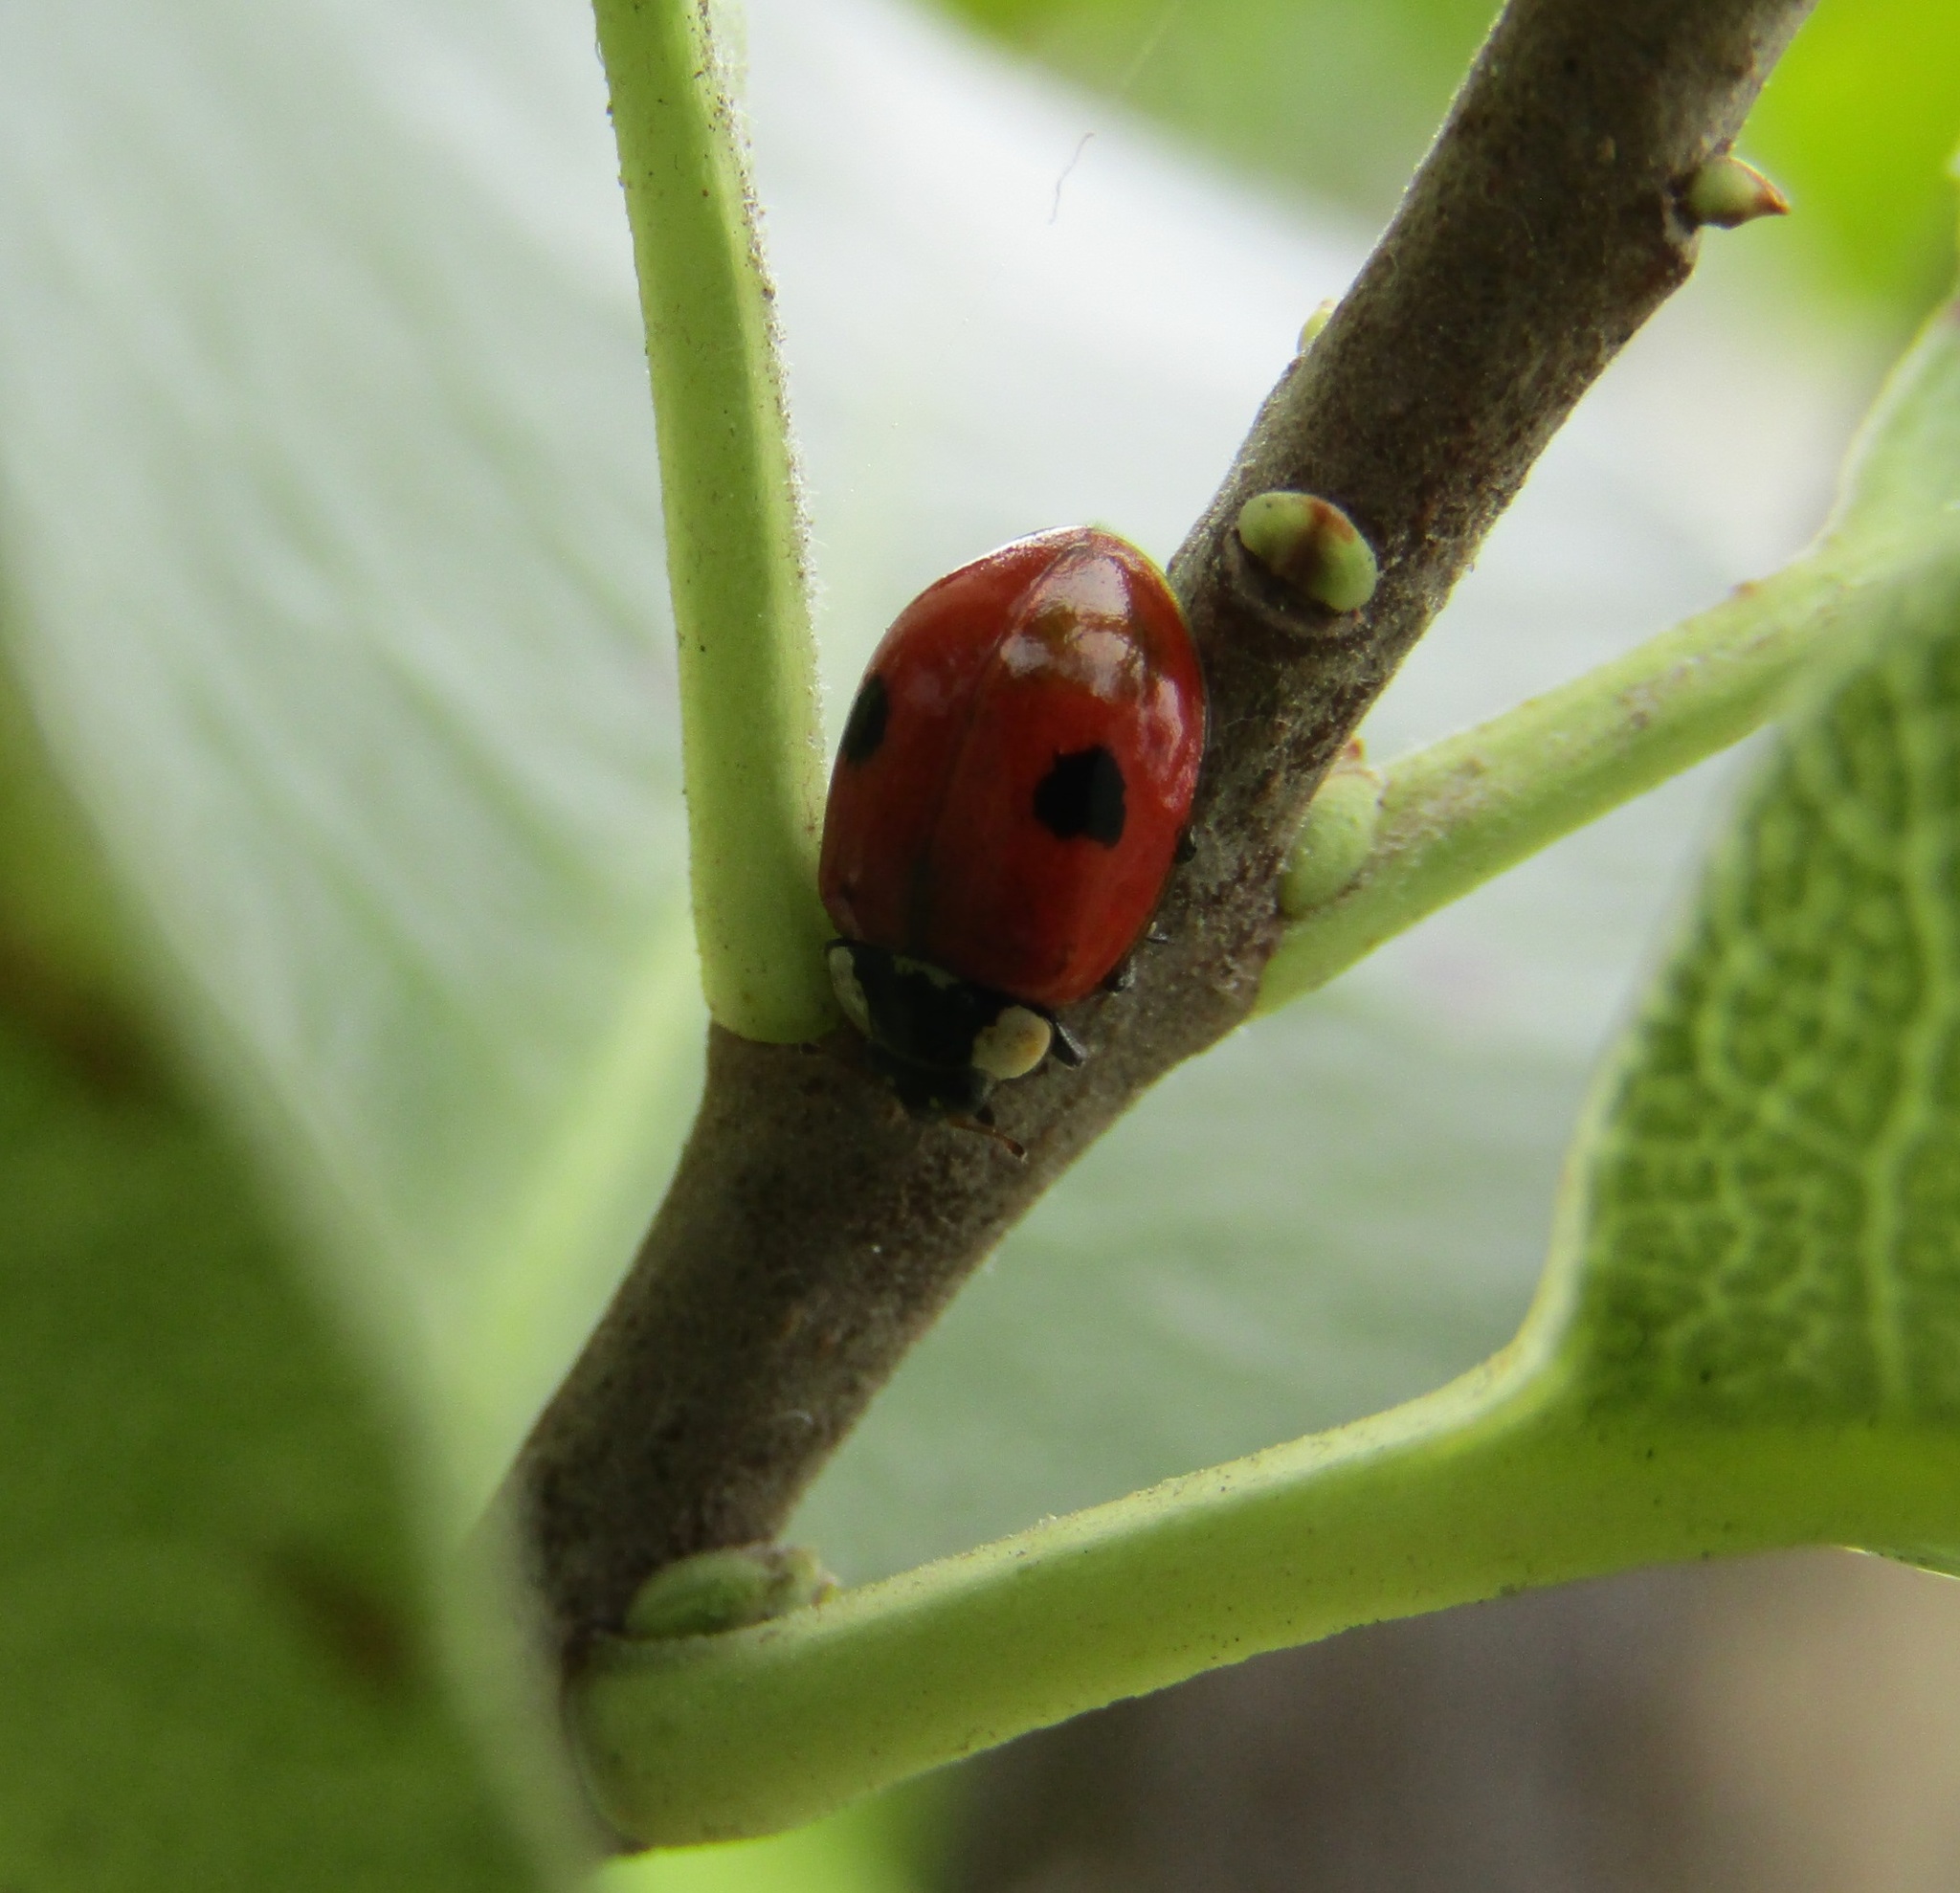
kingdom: Animalia
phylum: Arthropoda
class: Insecta
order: Coleoptera
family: Coccinellidae
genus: Adalia
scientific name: Adalia bipunctata
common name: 2-spot ladybird
